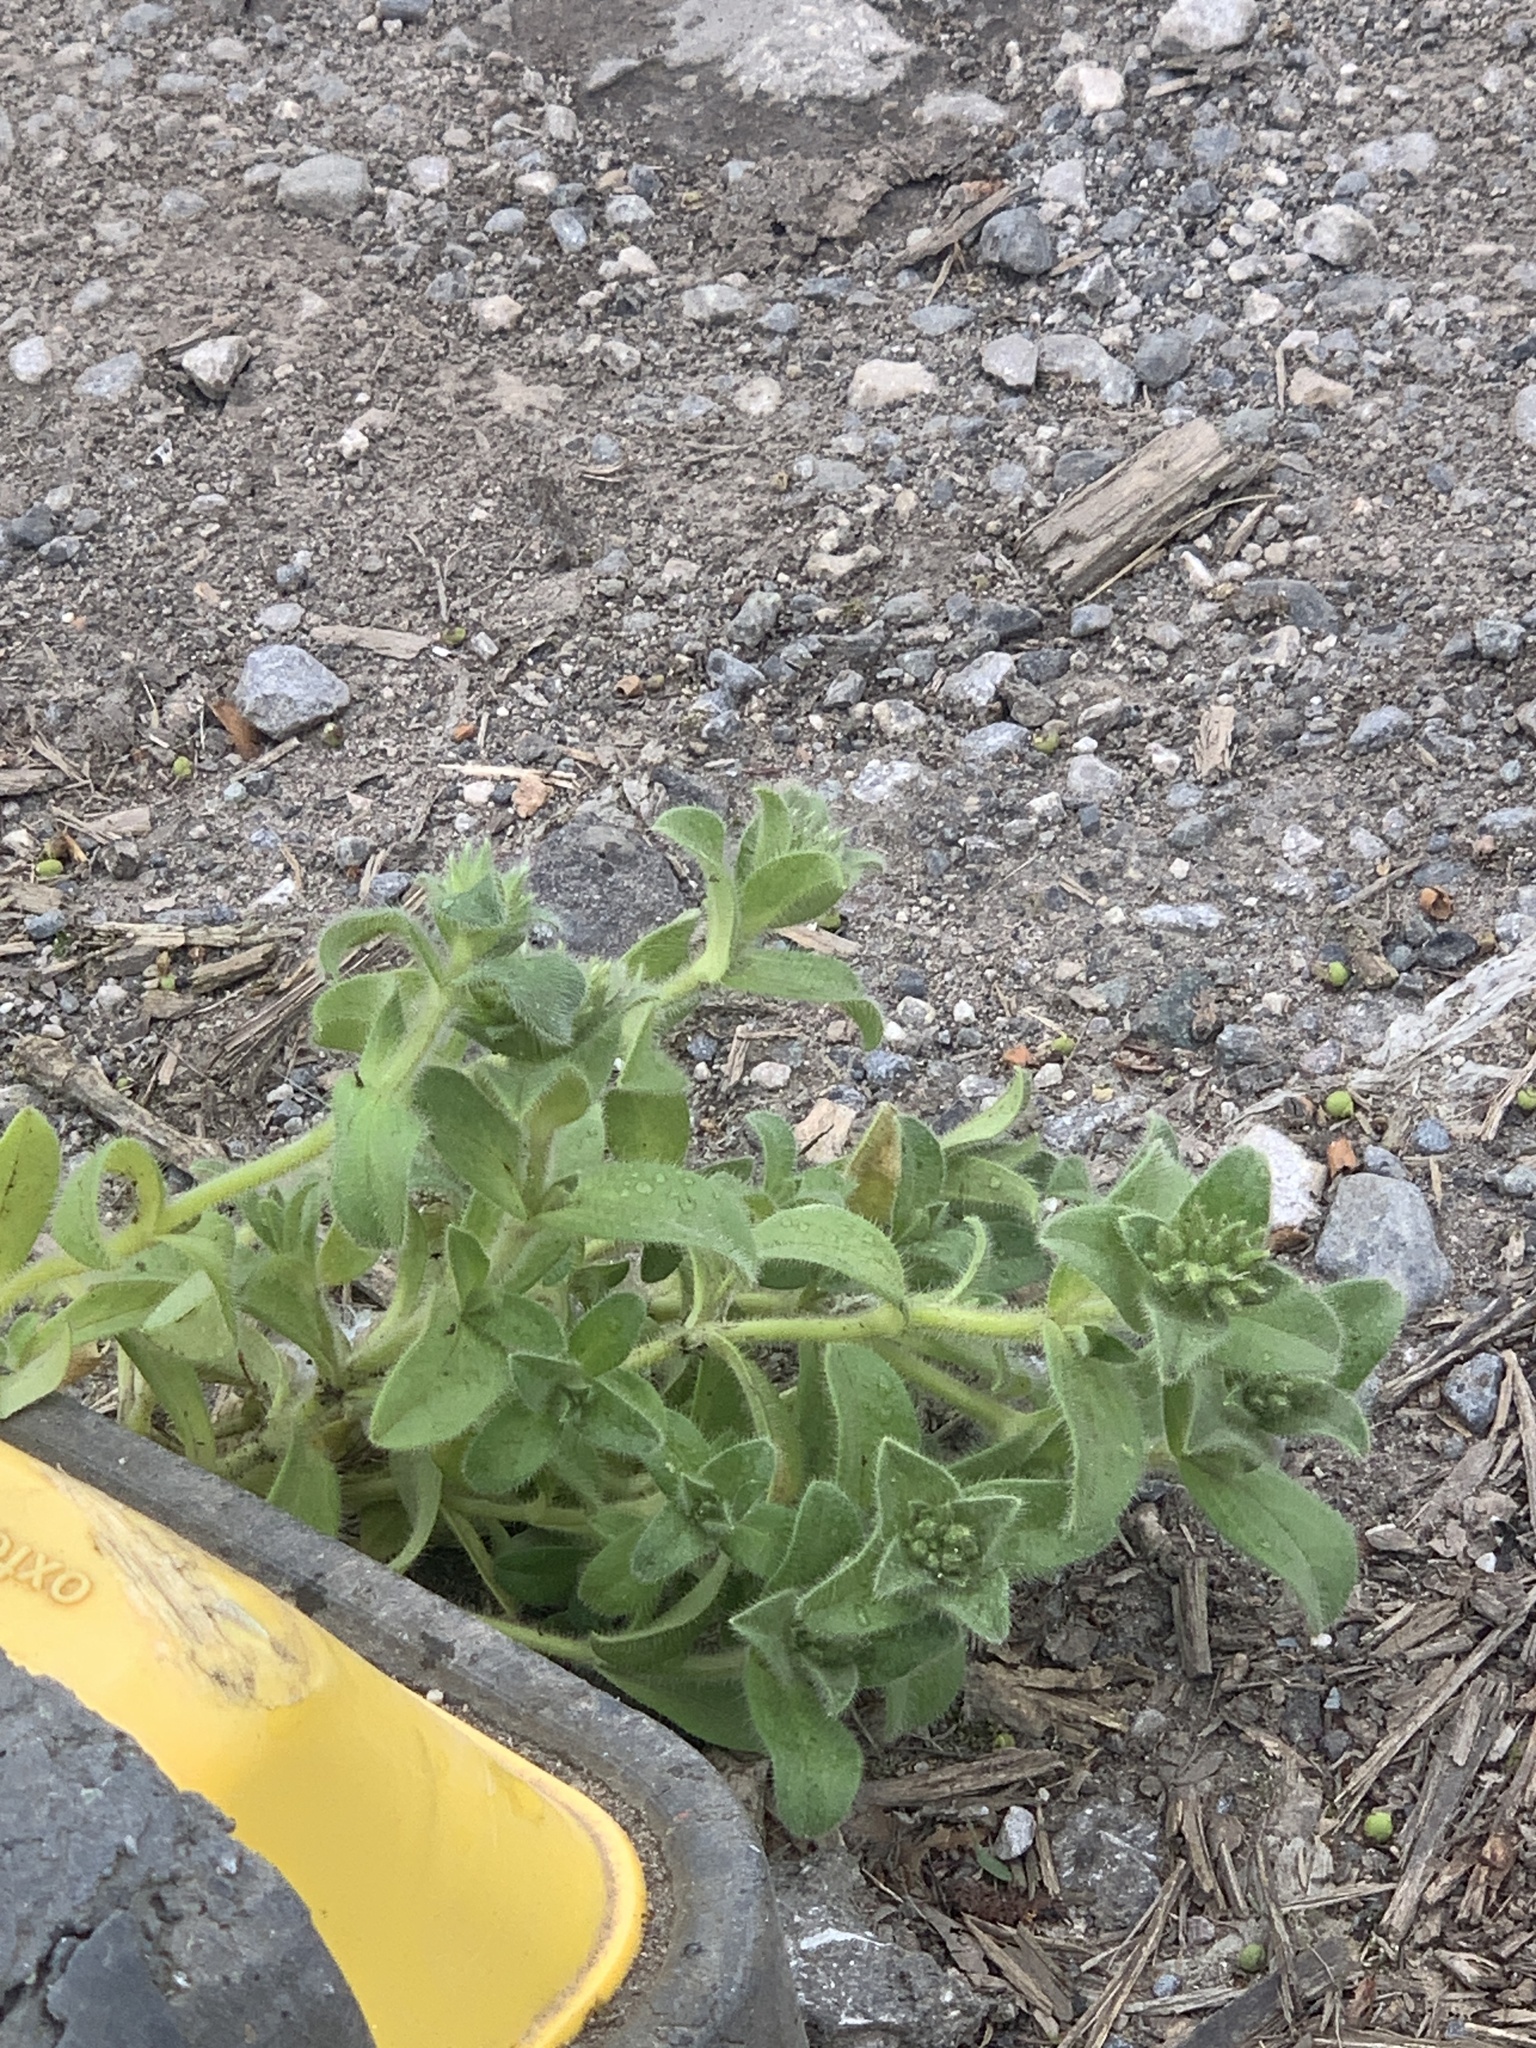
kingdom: Plantae
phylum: Tracheophyta
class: Magnoliopsida
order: Caryophyllales
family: Caryophyllaceae
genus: Cerastium
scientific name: Cerastium glomeratum
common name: Sticky chickweed
